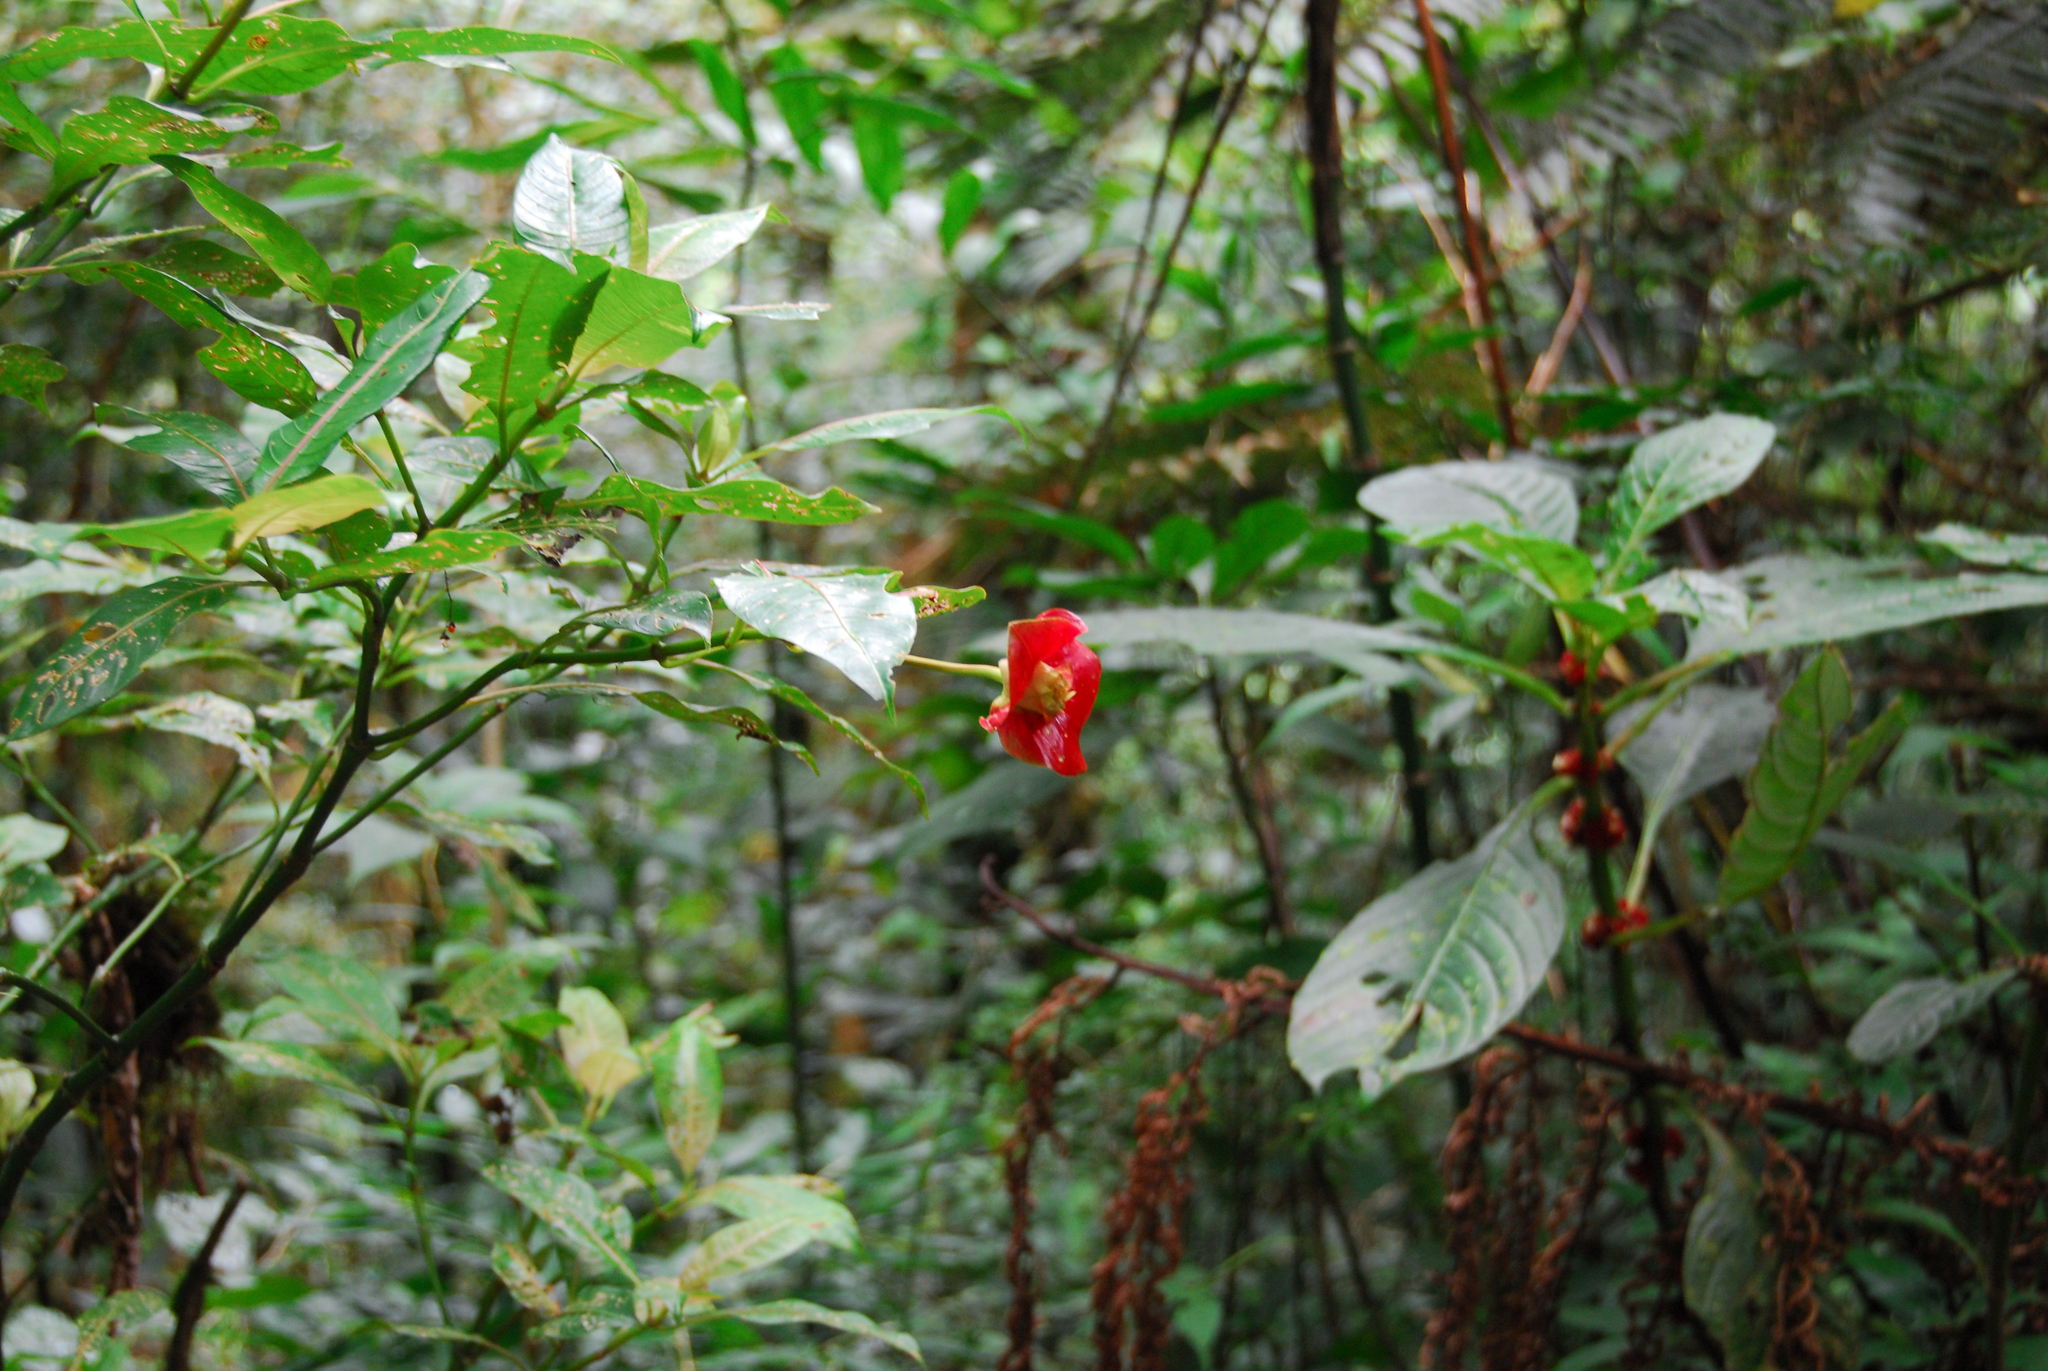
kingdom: Plantae
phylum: Tracheophyta
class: Magnoliopsida
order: Gentianales
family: Rubiaceae
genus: Palicourea
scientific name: Palicourea elata
